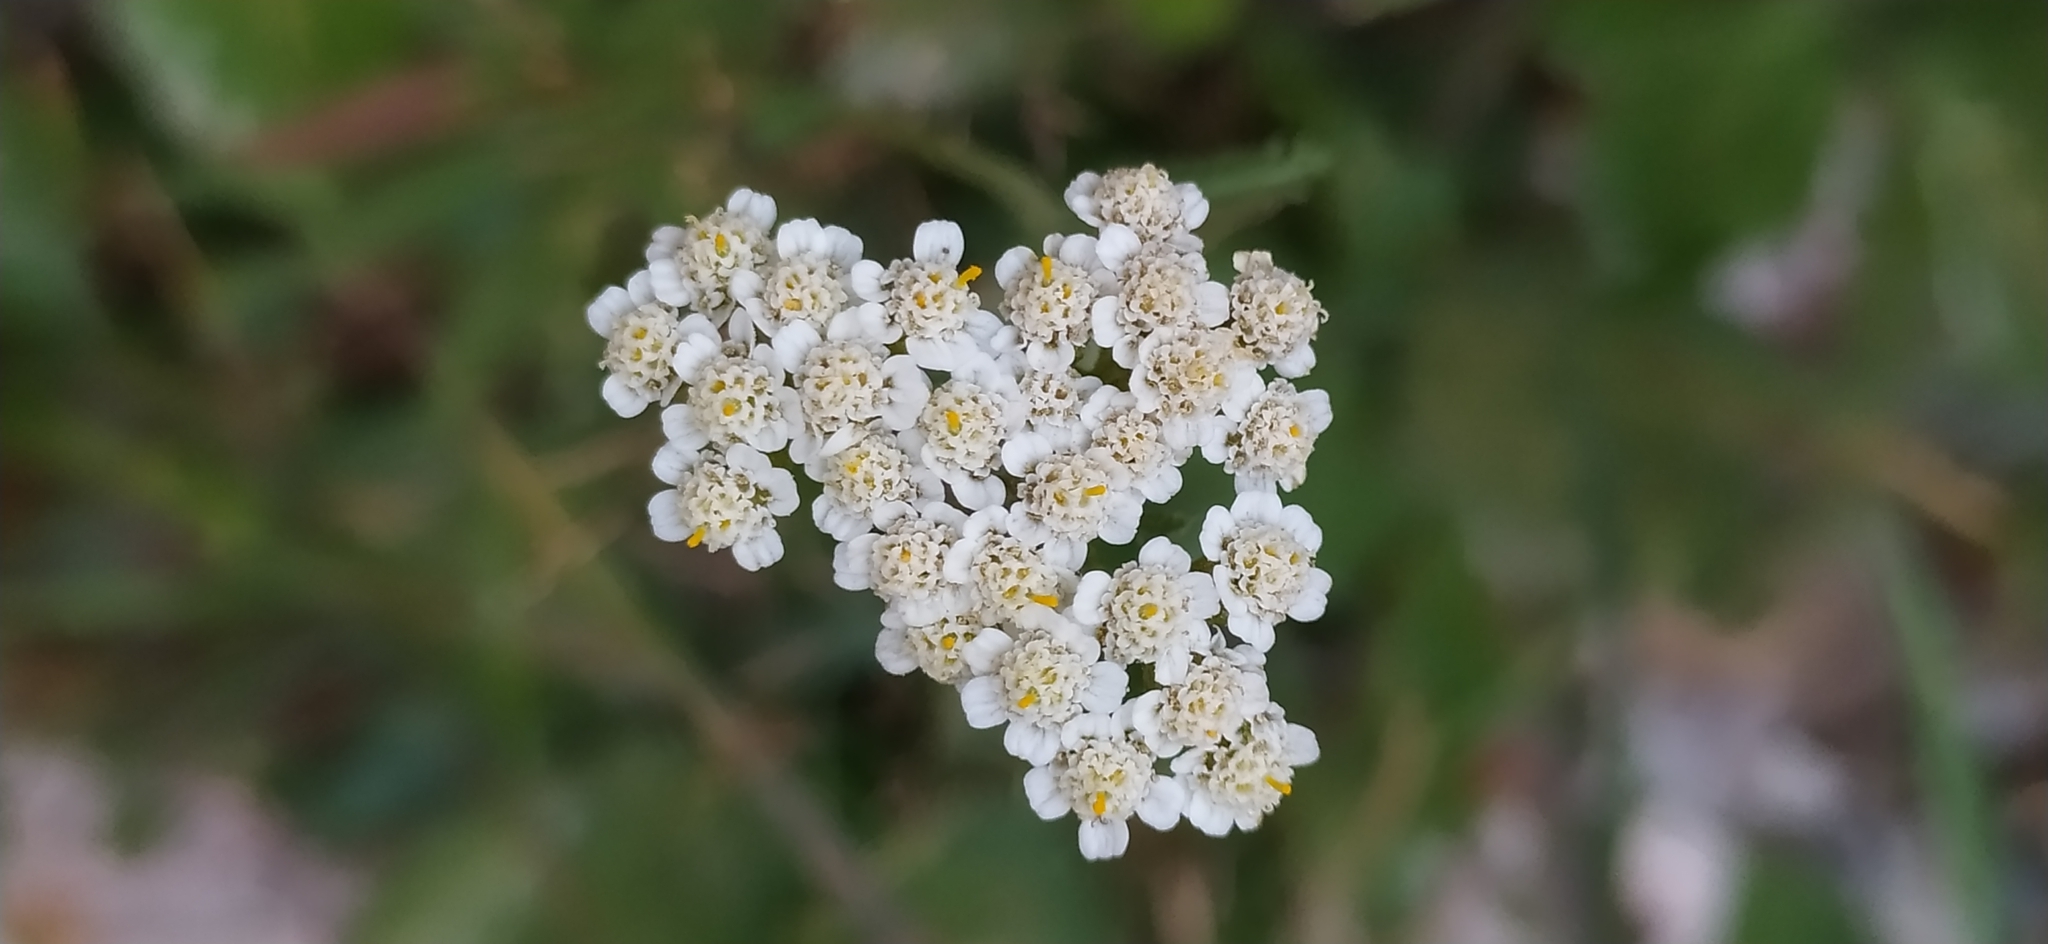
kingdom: Plantae
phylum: Tracheophyta
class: Magnoliopsida
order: Asterales
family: Asteraceae
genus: Achillea
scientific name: Achillea millefolium
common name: Yarrow
